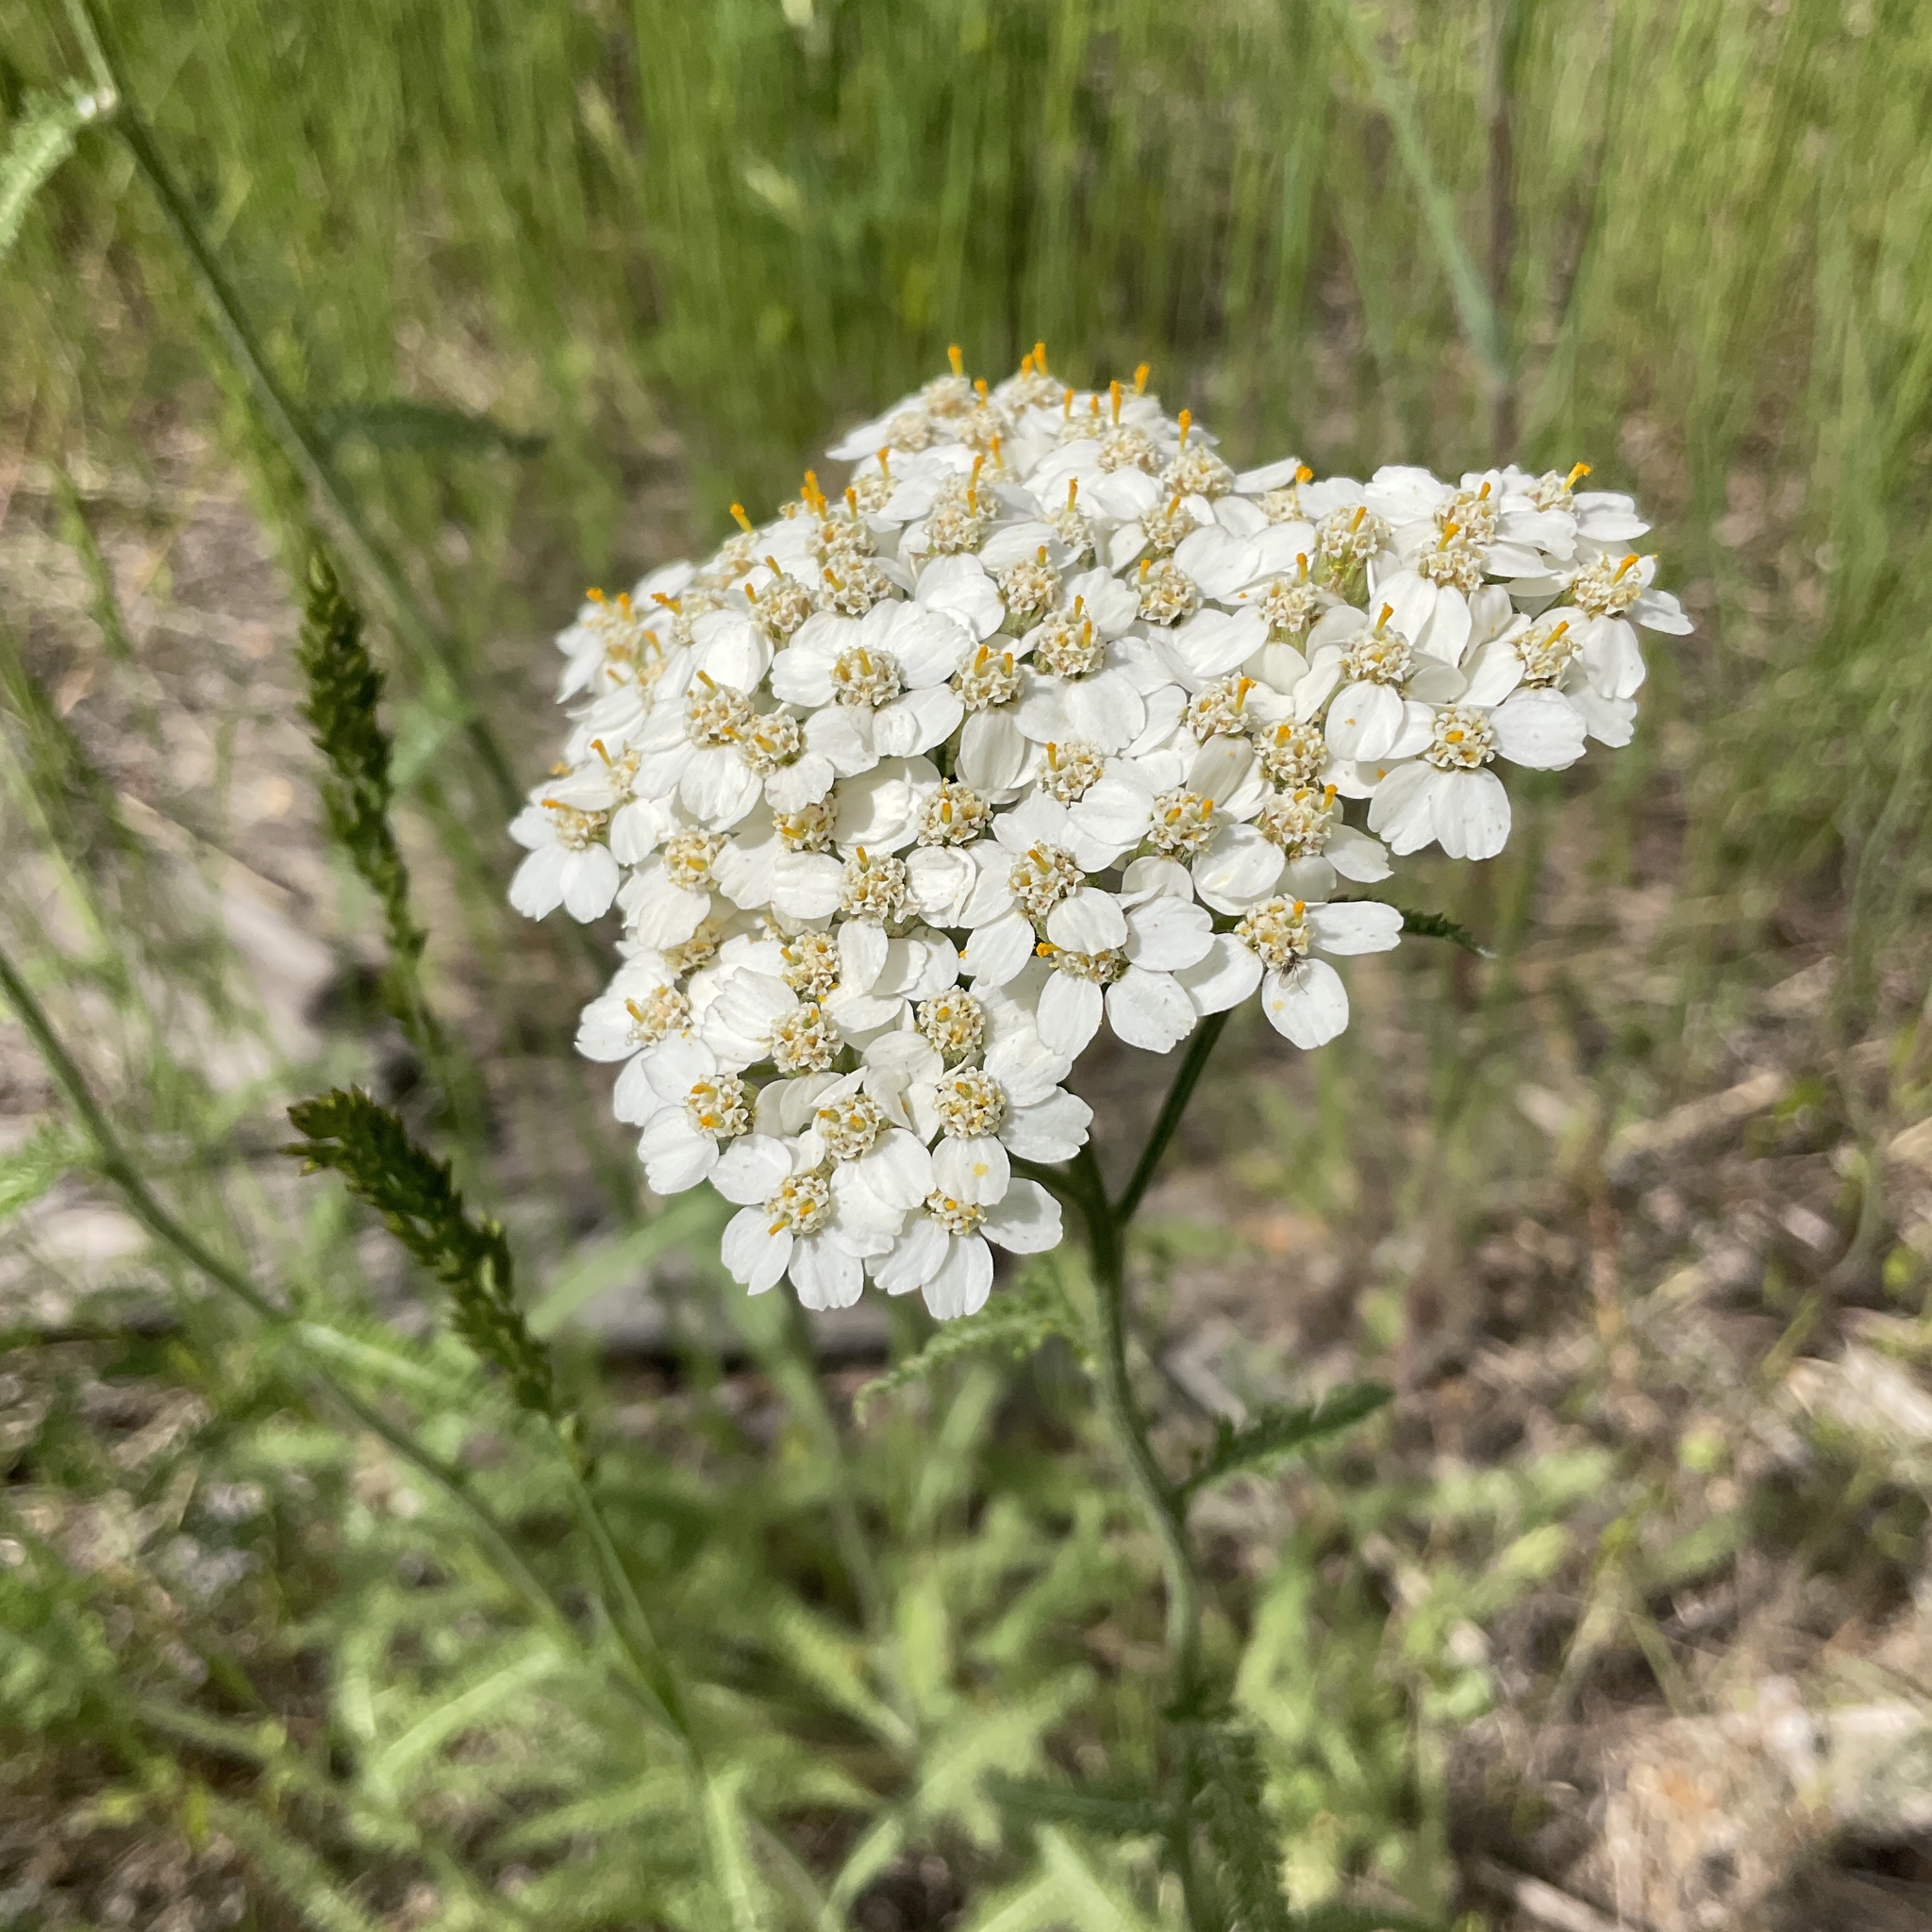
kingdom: Plantae
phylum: Tracheophyta
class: Magnoliopsida
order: Asterales
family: Asteraceae
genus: Achillea
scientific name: Achillea millefolium
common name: Yarrow
